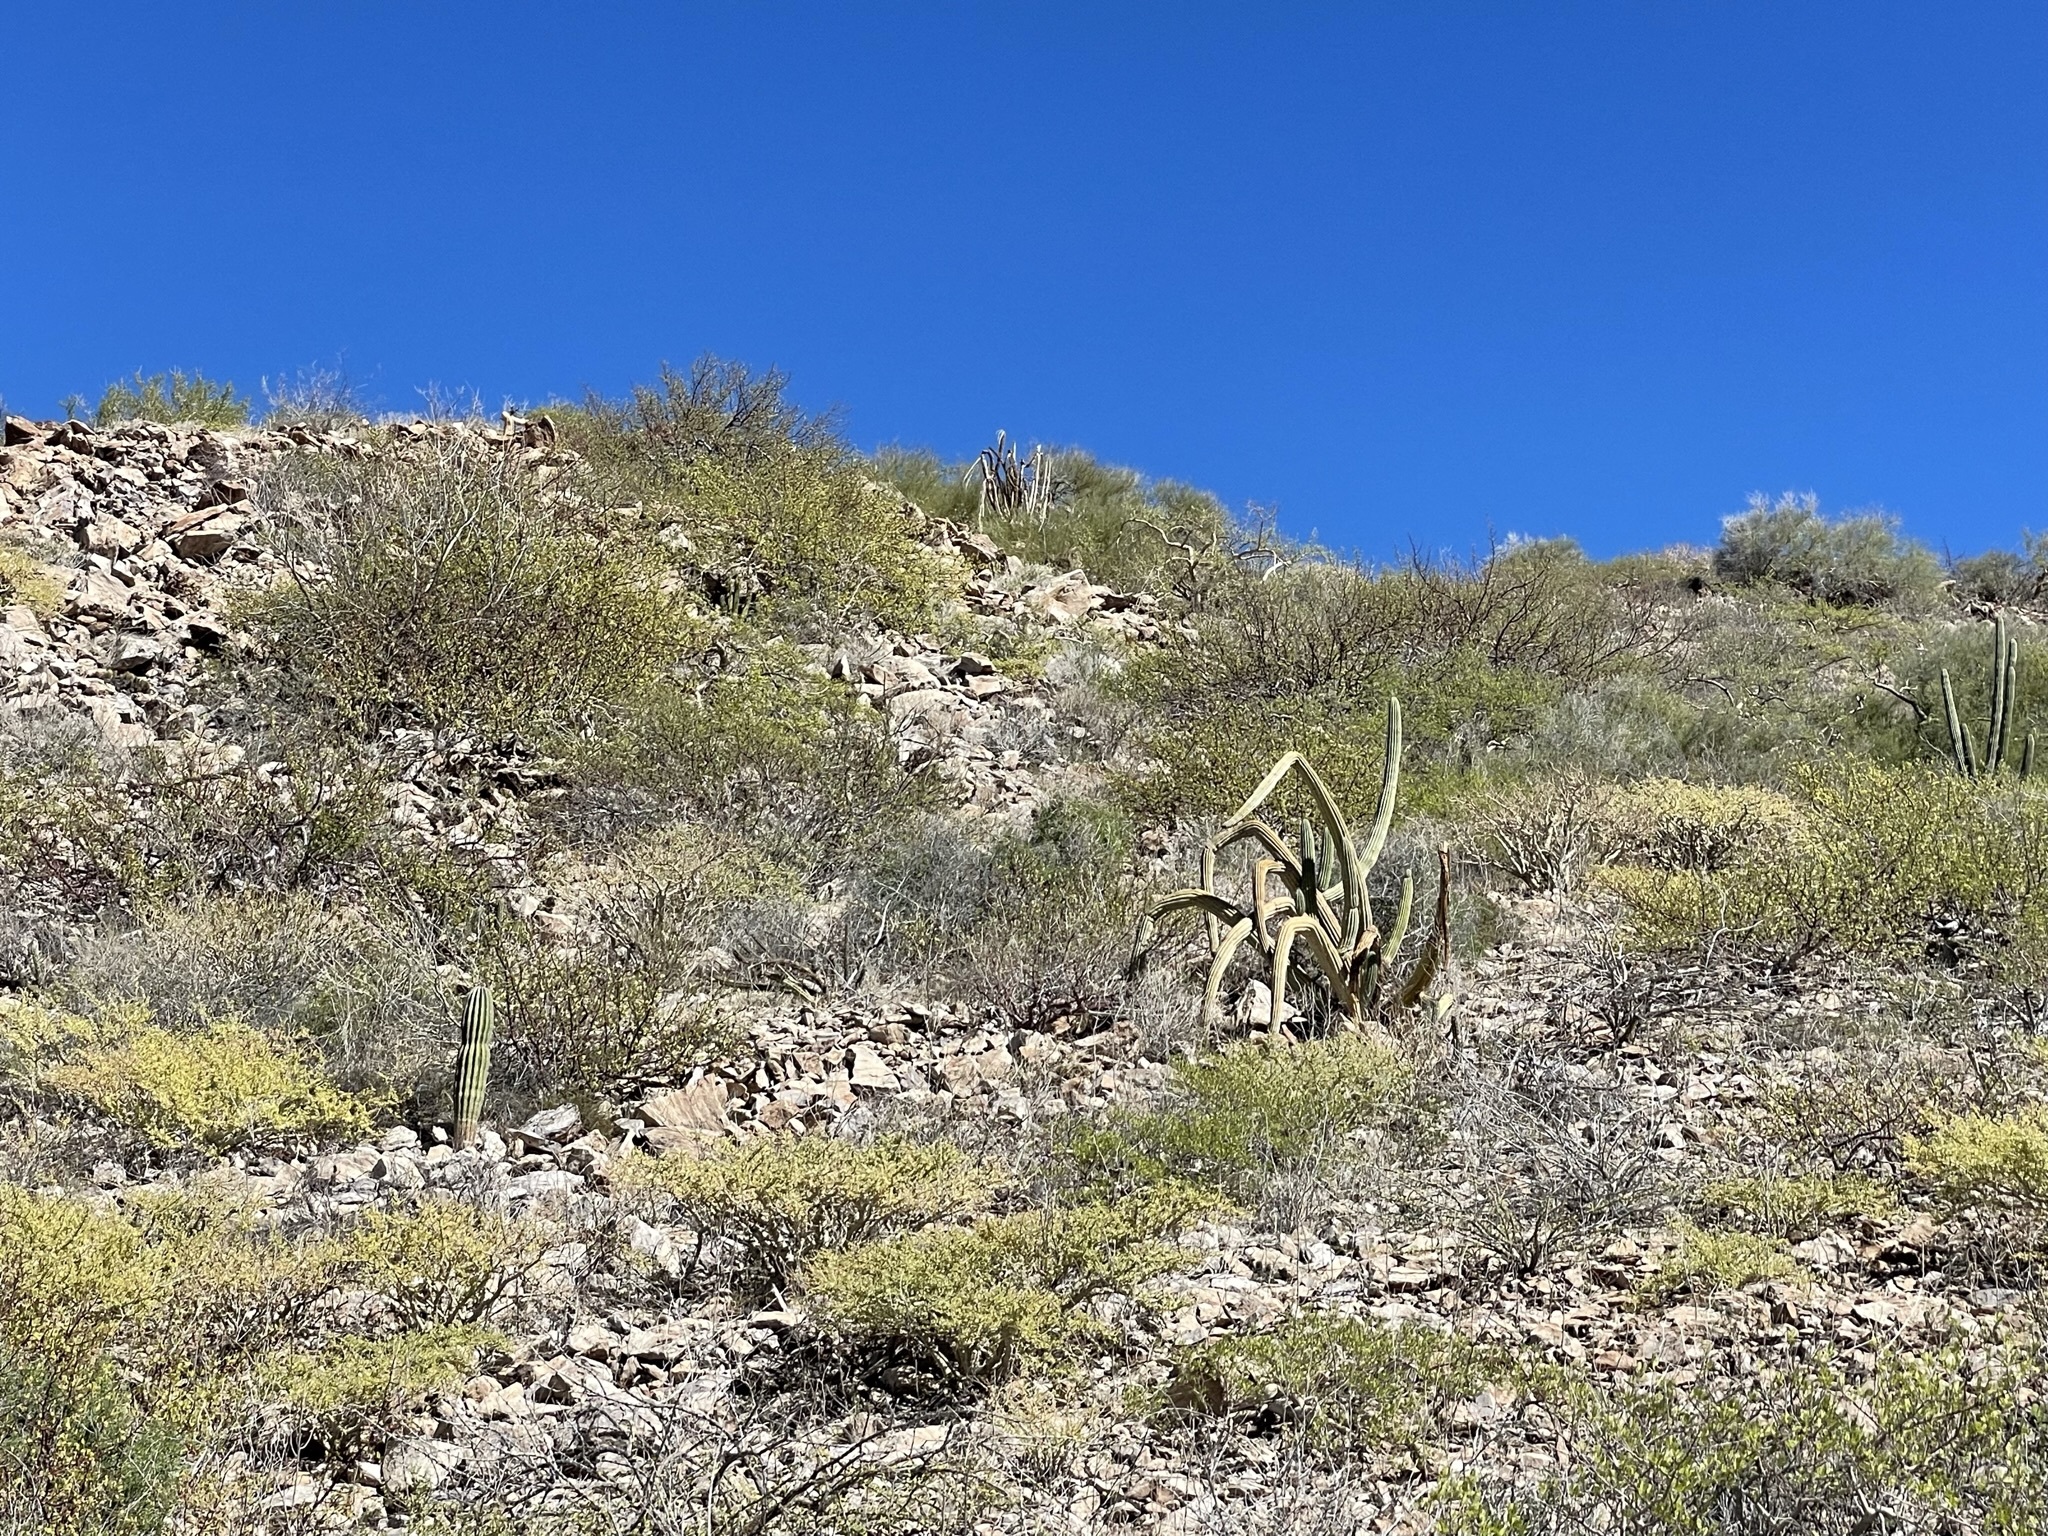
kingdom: Plantae
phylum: Tracheophyta
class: Magnoliopsida
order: Caryophyllales
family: Cactaceae
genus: Stenocereus
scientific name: Stenocereus thurberi
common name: Organ pipe cactus
